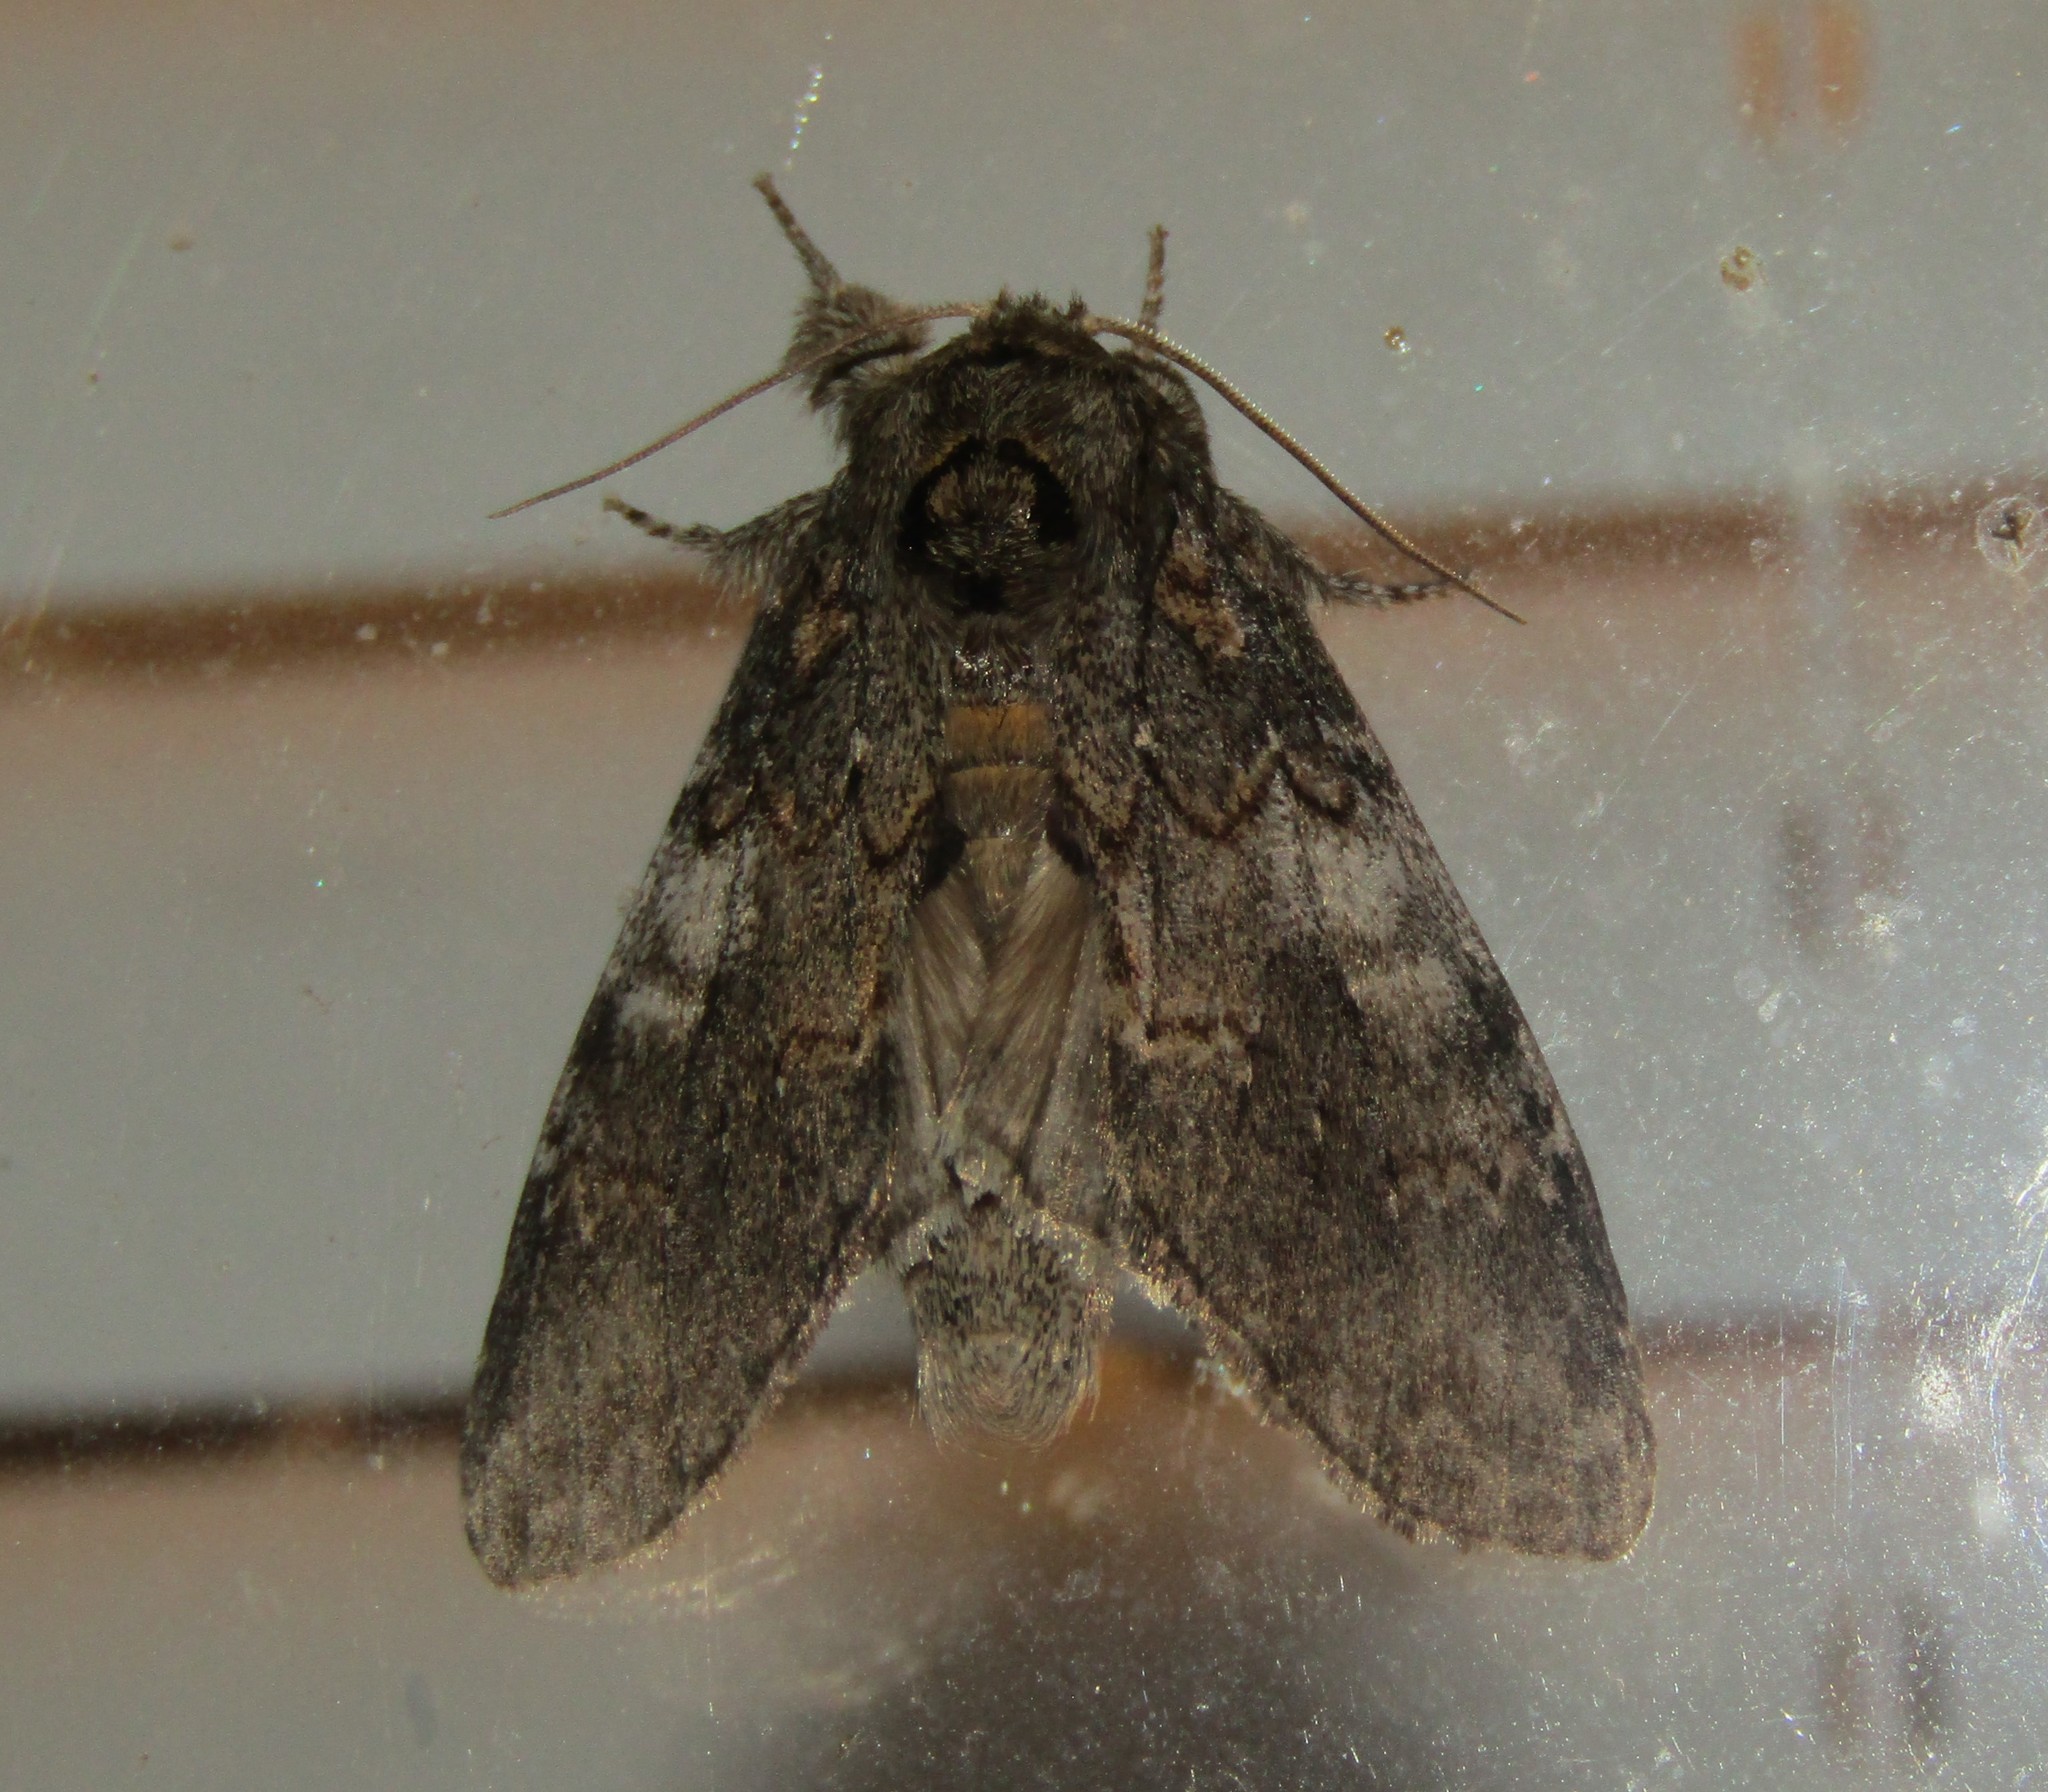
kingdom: Animalia
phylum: Arthropoda
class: Insecta
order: Lepidoptera
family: Notodontidae
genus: Peridea
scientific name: Peridea angulosa
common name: Angulose prominent
